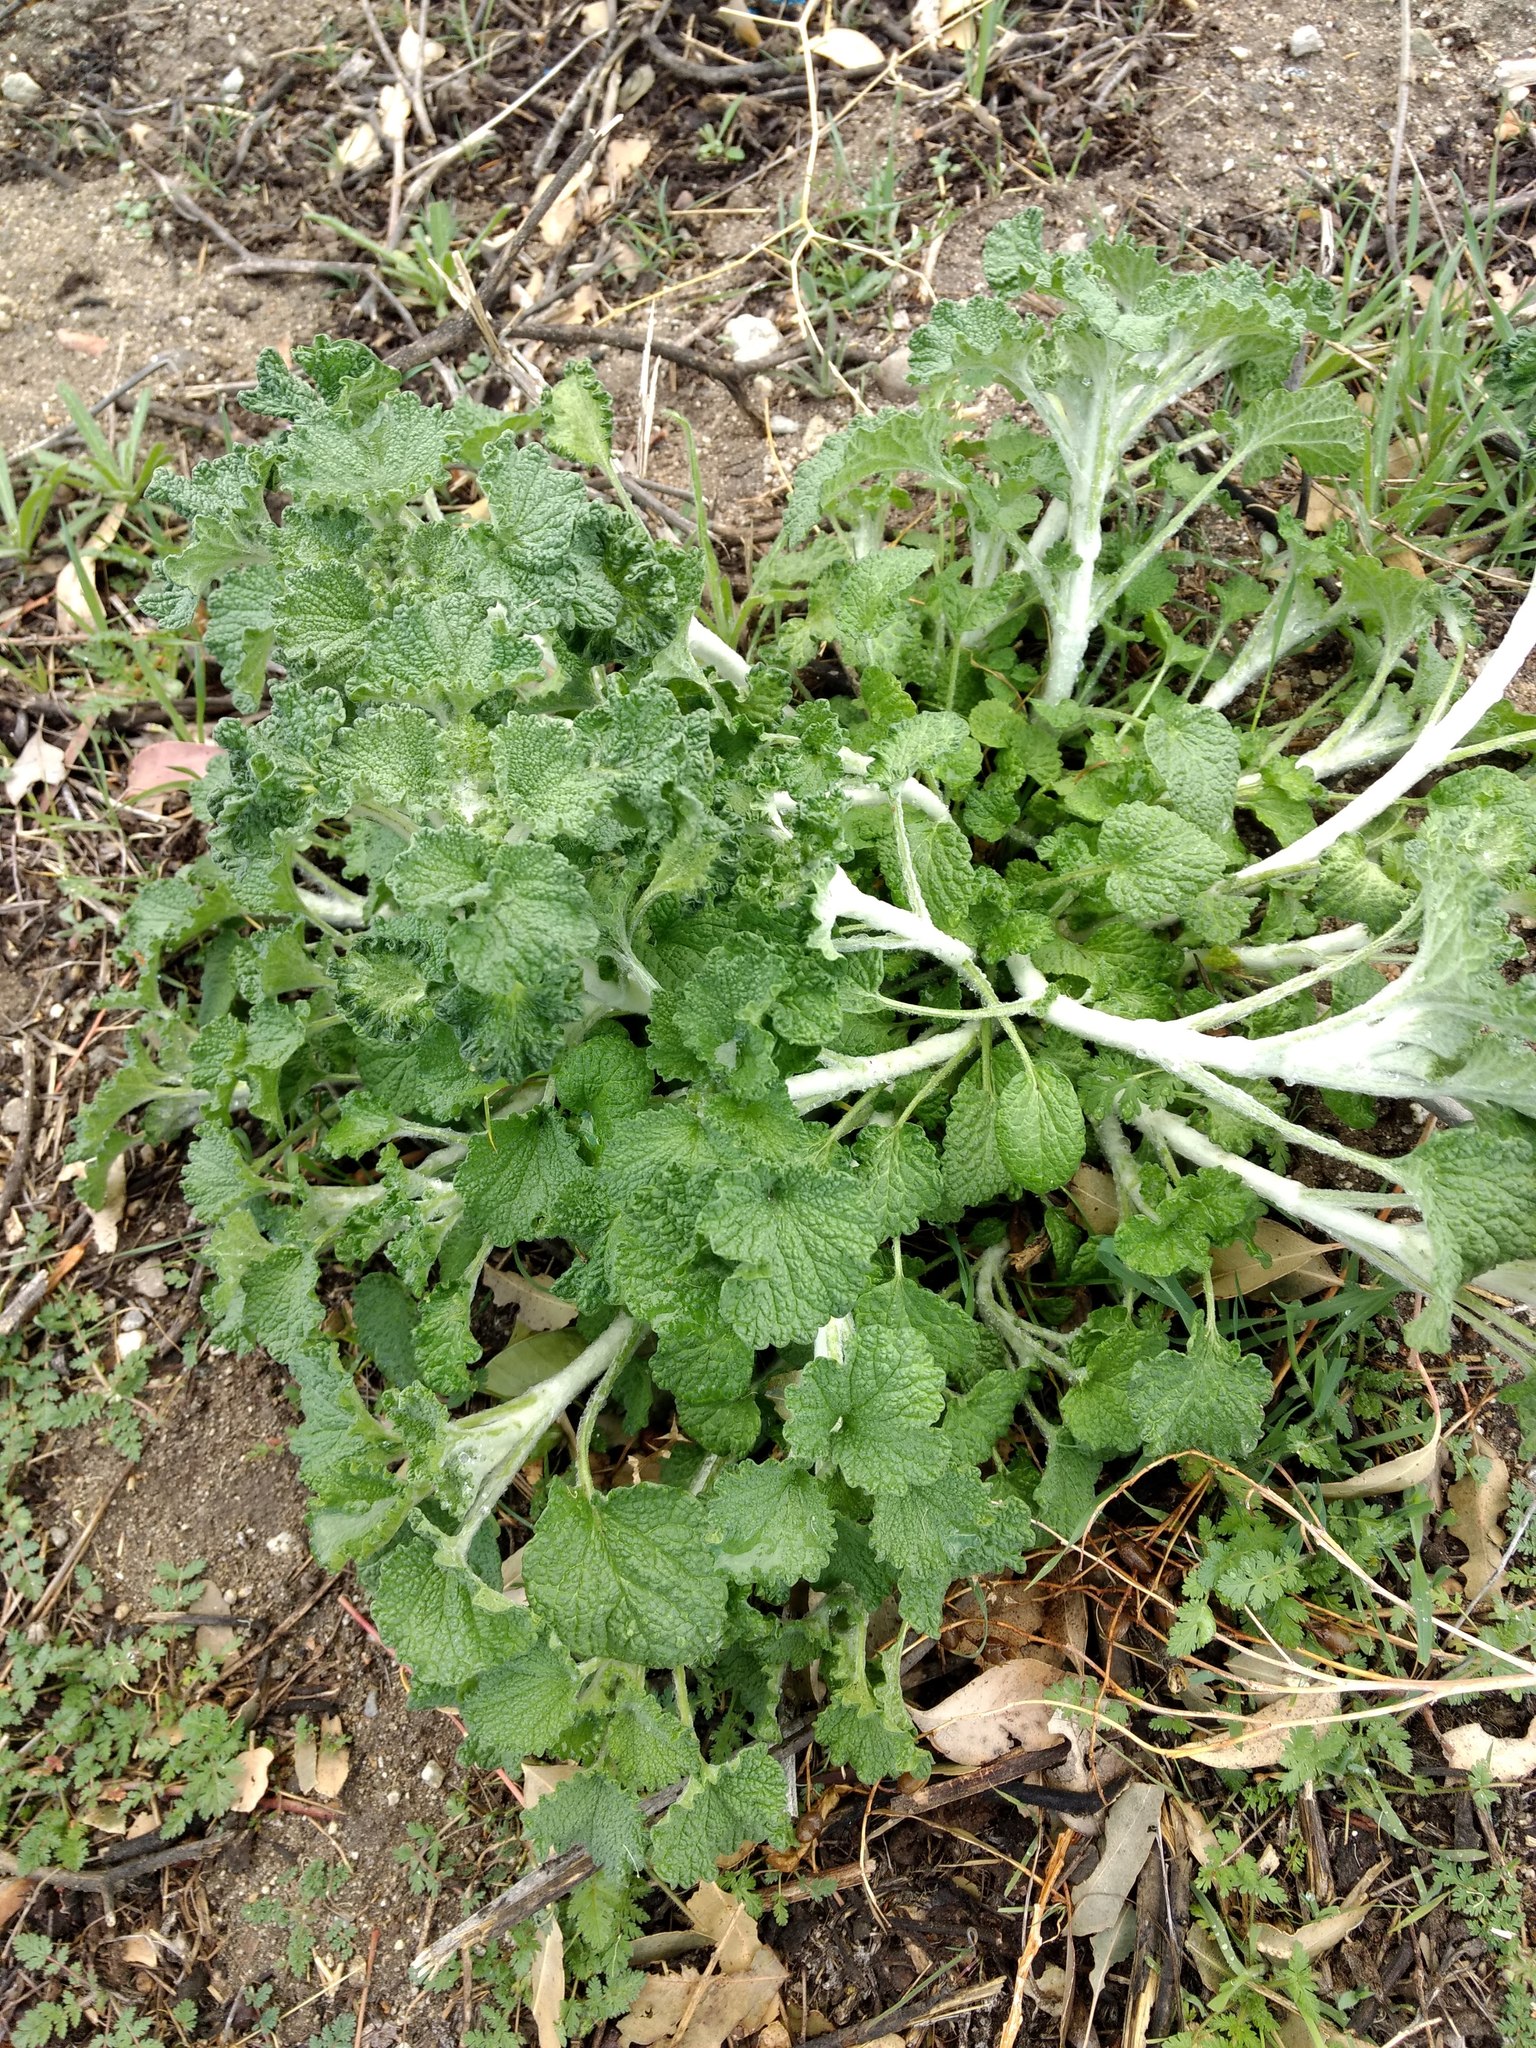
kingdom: Plantae
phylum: Tracheophyta
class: Magnoliopsida
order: Lamiales
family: Lamiaceae
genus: Marrubium
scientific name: Marrubium vulgare
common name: Horehound
